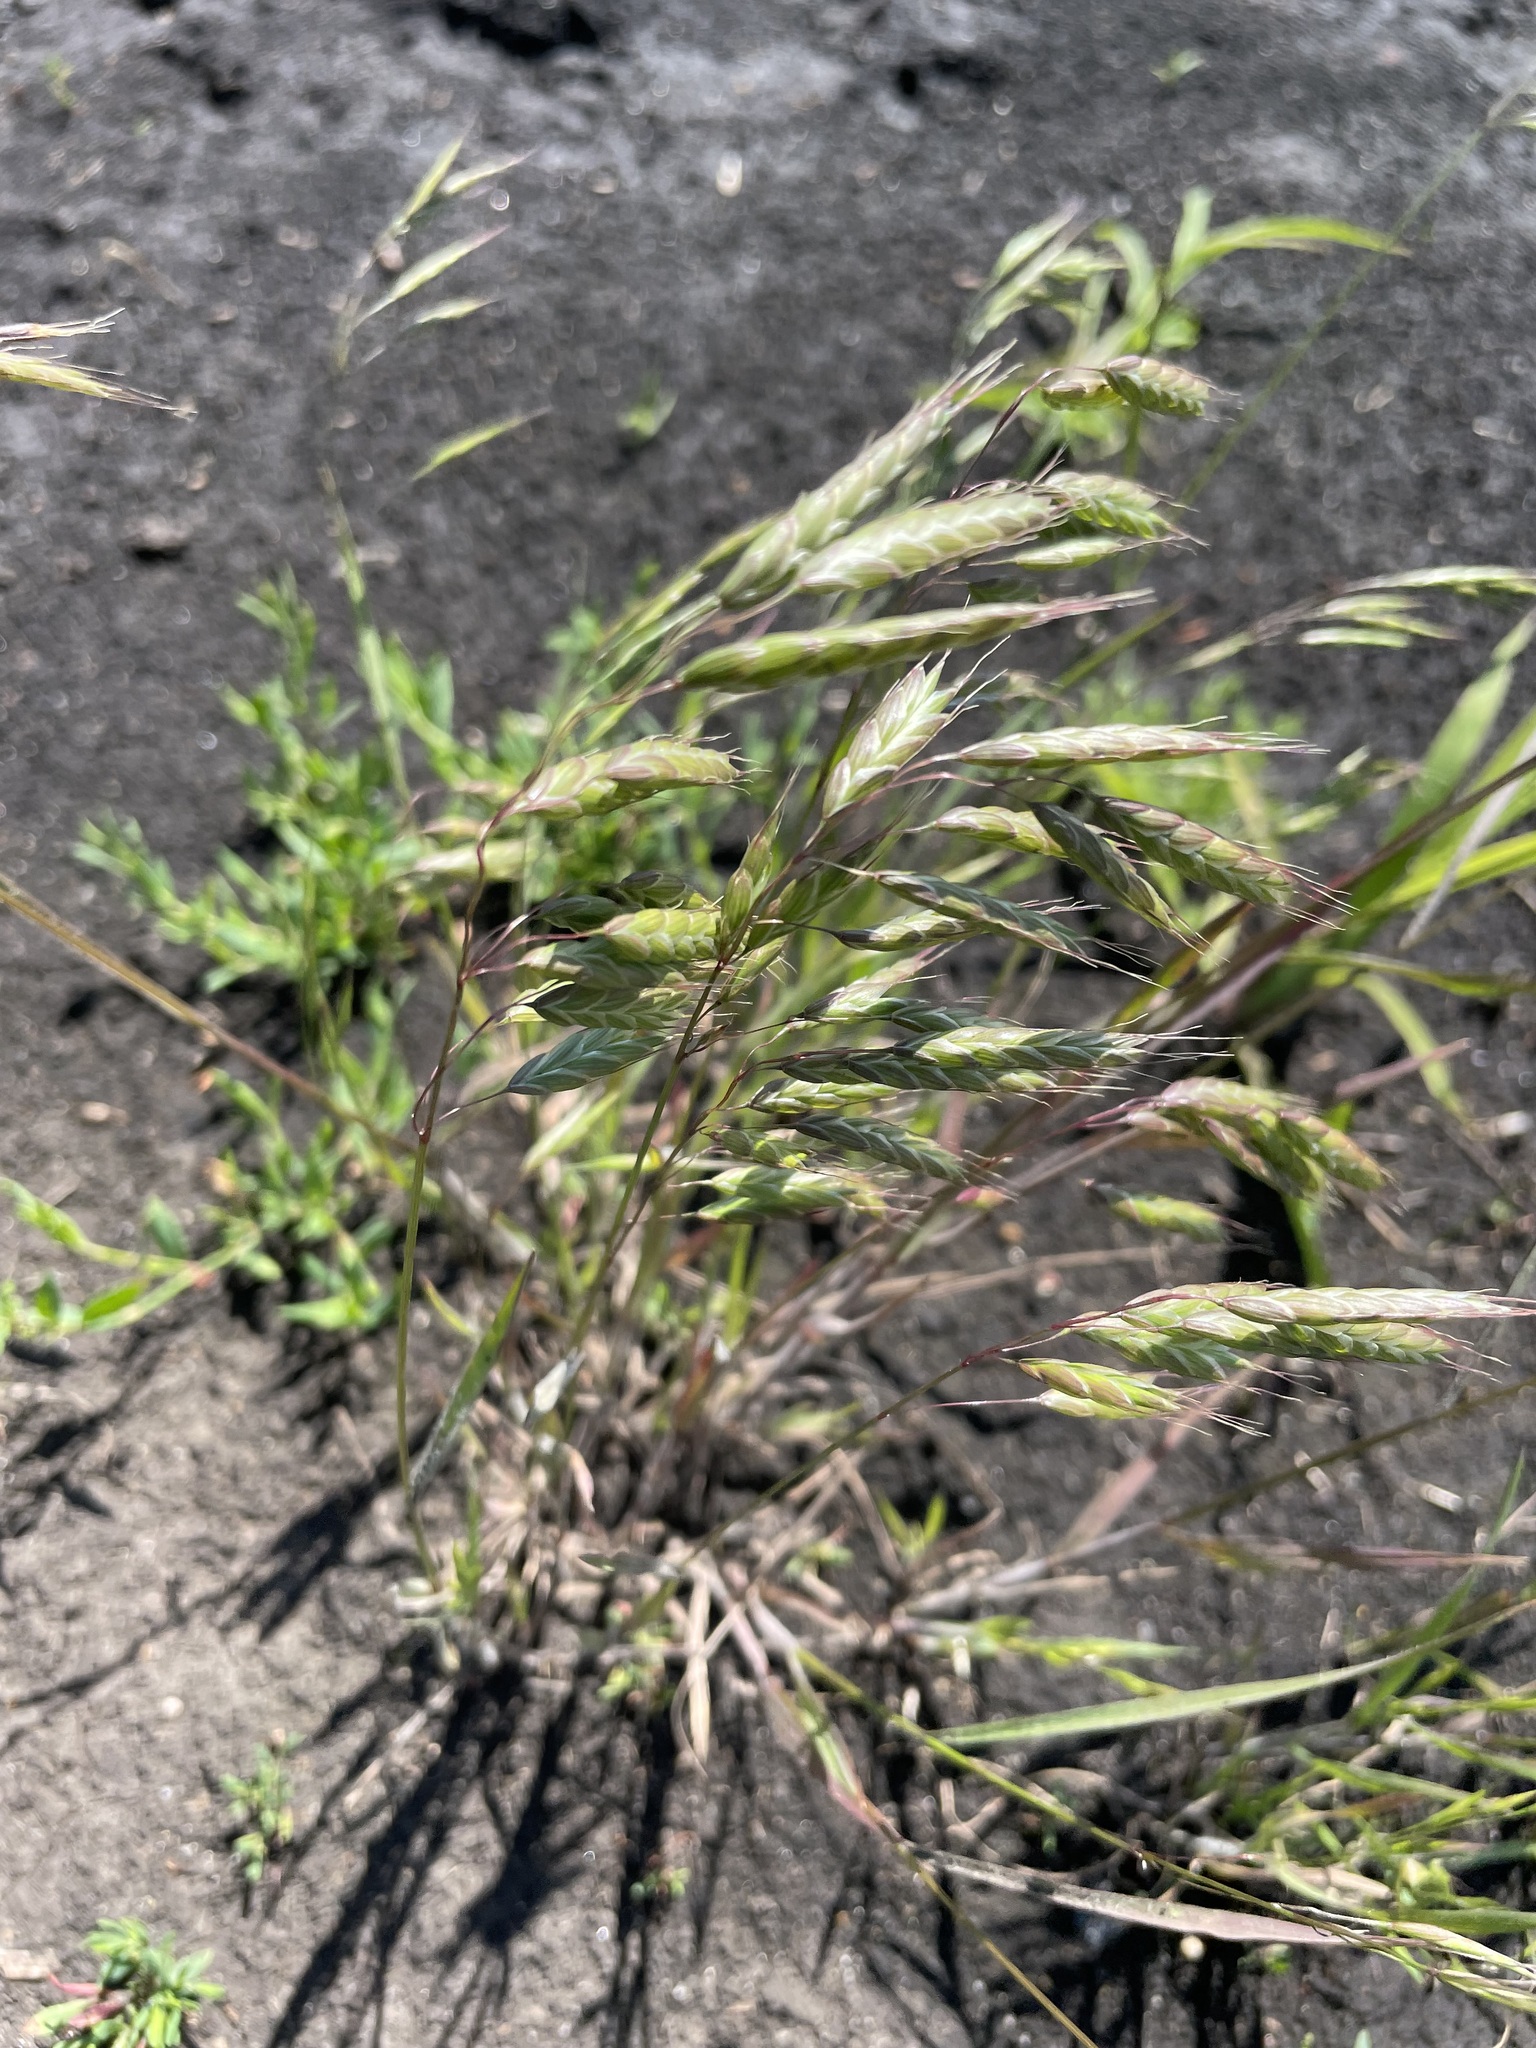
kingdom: Plantae
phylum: Tracheophyta
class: Liliopsida
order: Poales
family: Poaceae
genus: Bromus
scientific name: Bromus squarrosus
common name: Corn brome
